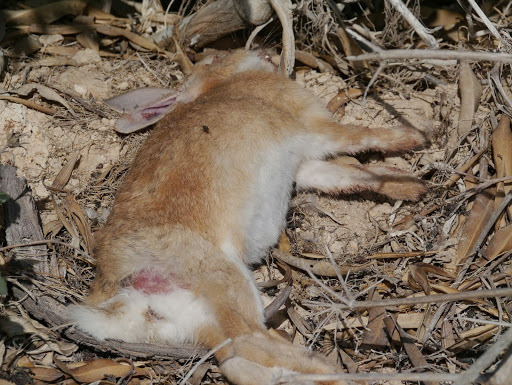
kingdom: Animalia
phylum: Chordata
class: Mammalia
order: Lagomorpha
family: Leporidae
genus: Oryctolagus
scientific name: Oryctolagus cuniculus
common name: European rabbit
